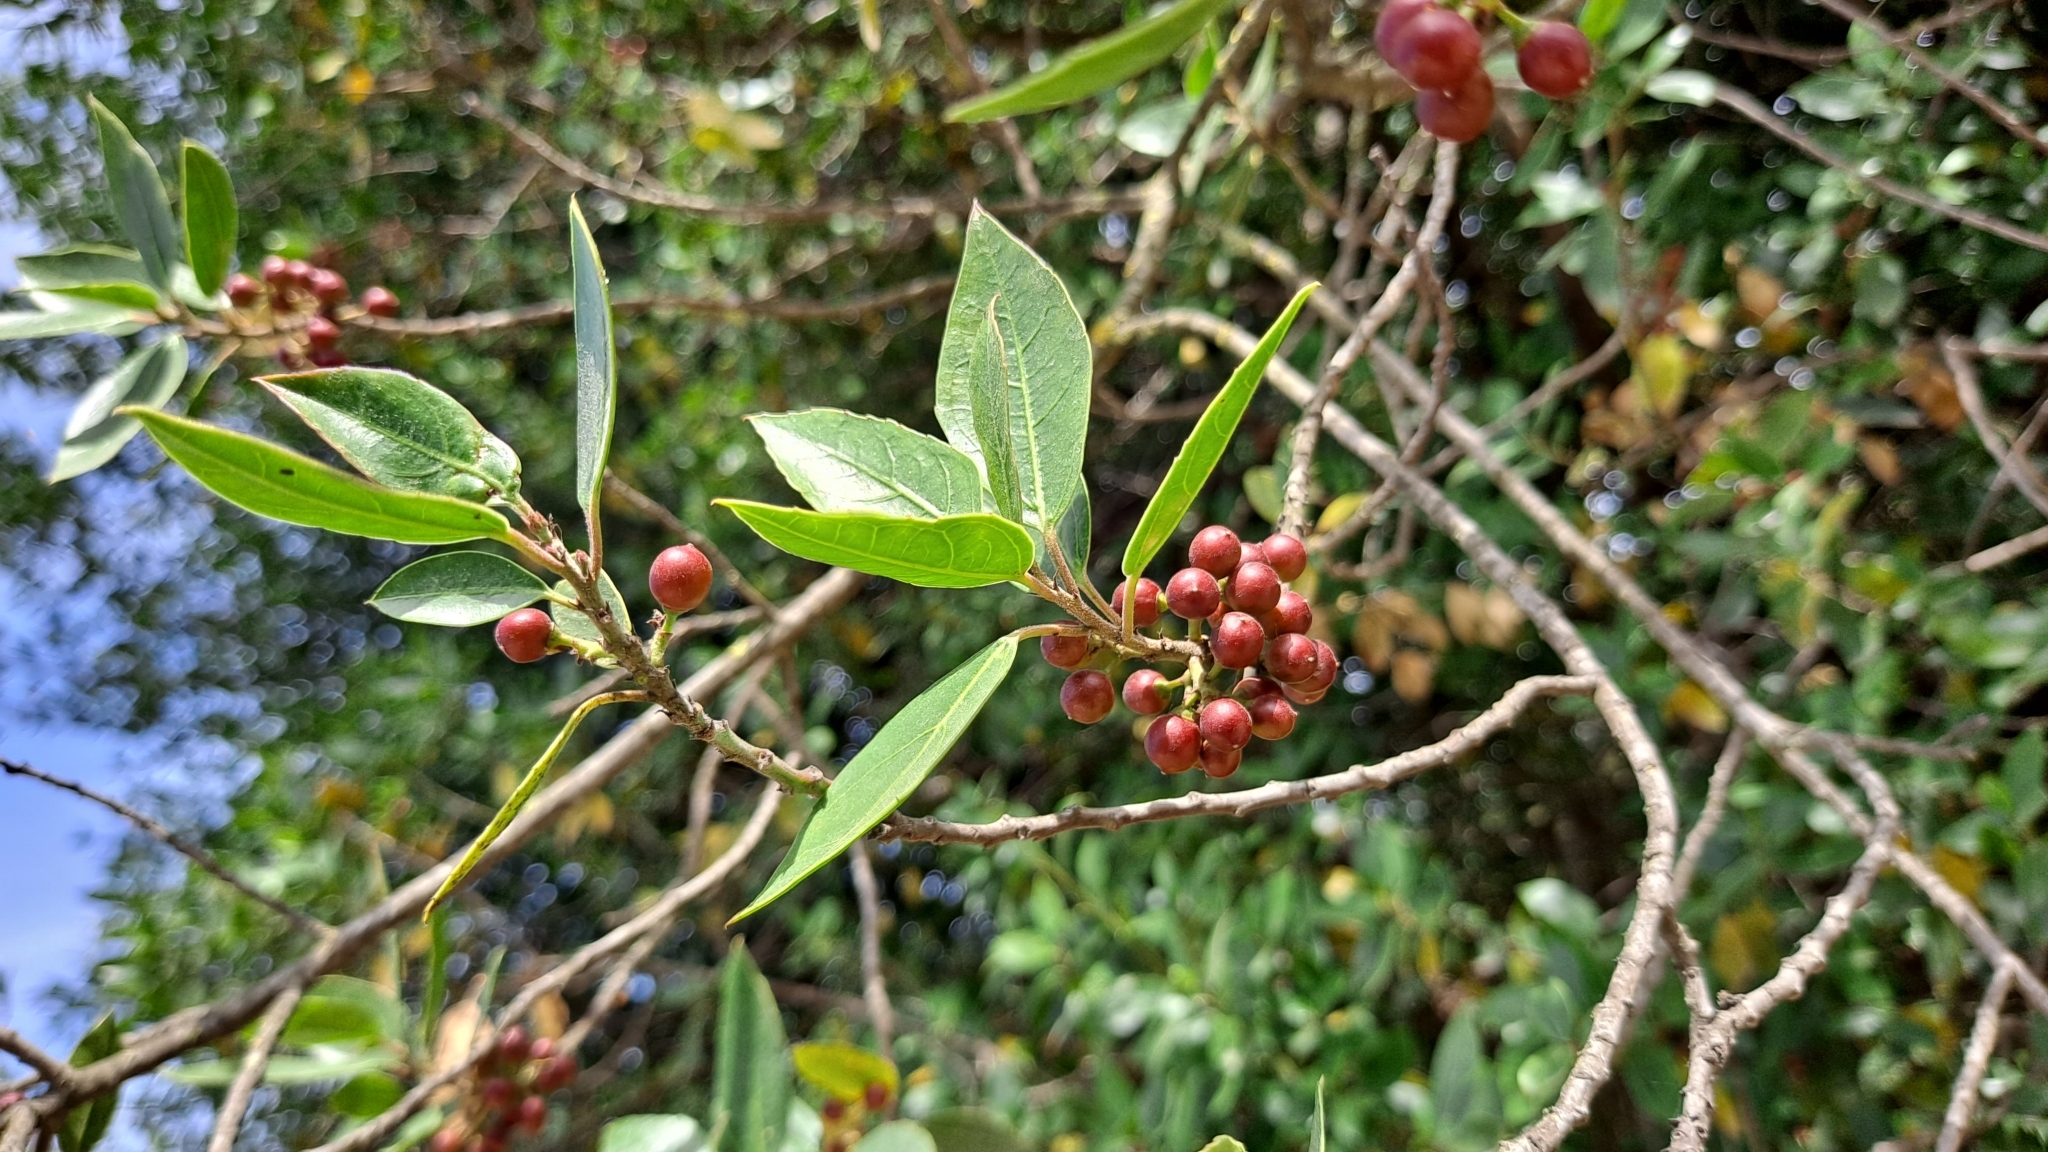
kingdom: Plantae
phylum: Tracheophyta
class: Magnoliopsida
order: Rosales
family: Rhamnaceae
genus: Rhamnus
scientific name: Rhamnus alaternus
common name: Mediterranean buckthorn
